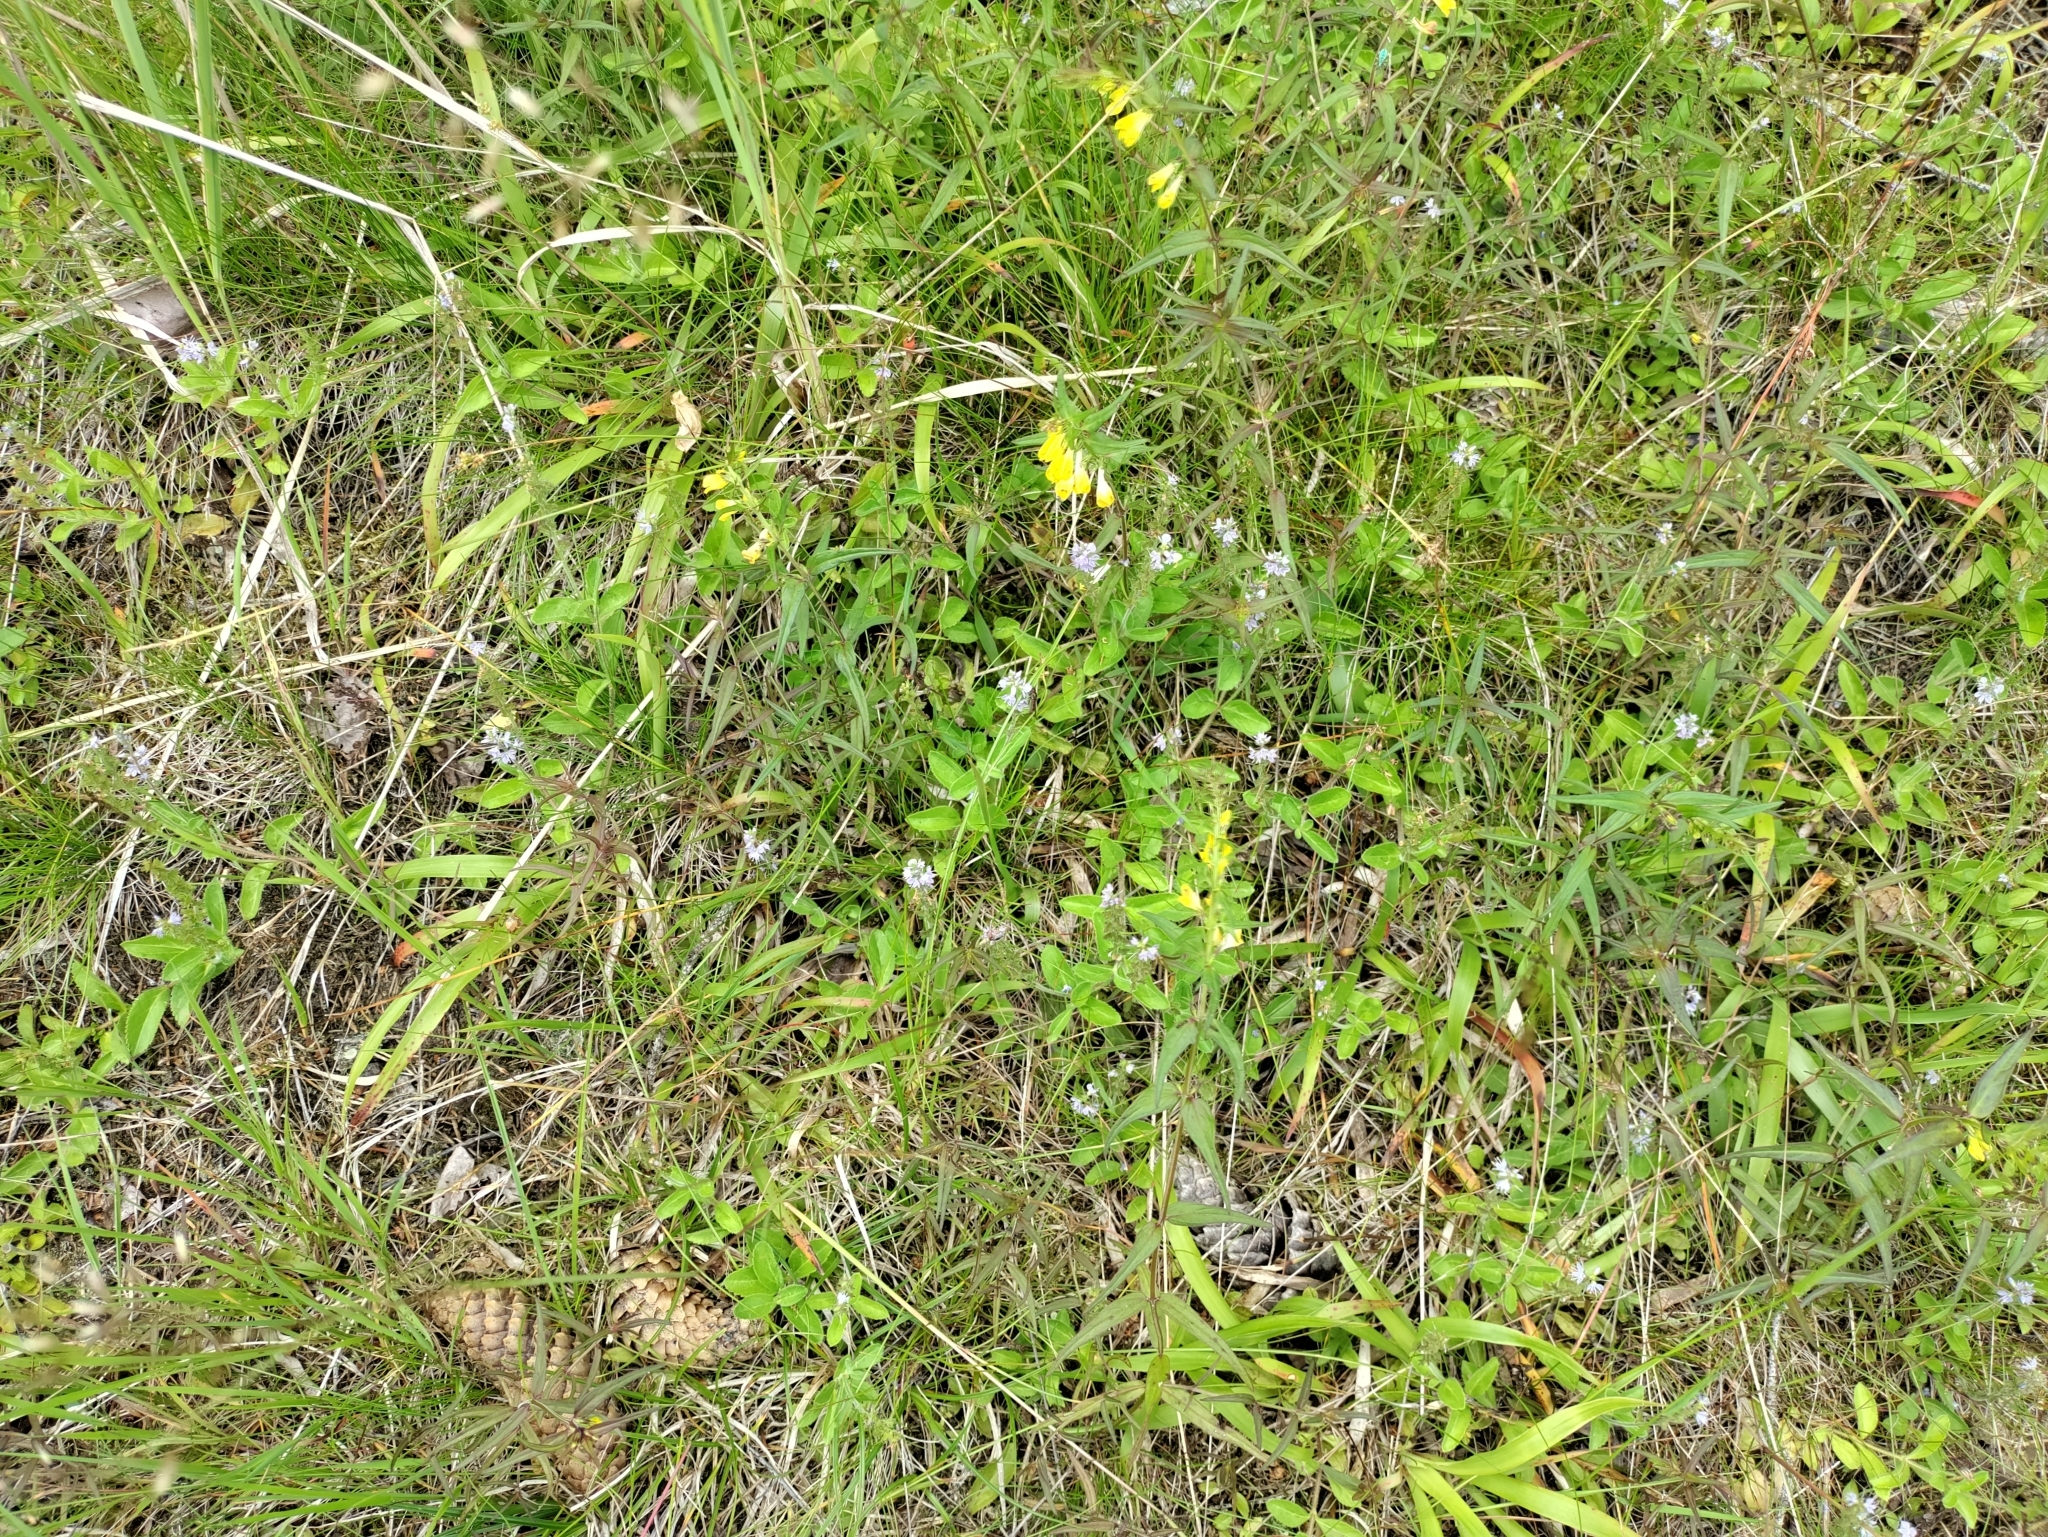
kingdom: Plantae
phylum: Tracheophyta
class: Magnoliopsida
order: Lamiales
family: Plantaginaceae
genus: Veronica
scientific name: Veronica officinalis
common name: Common speedwell
